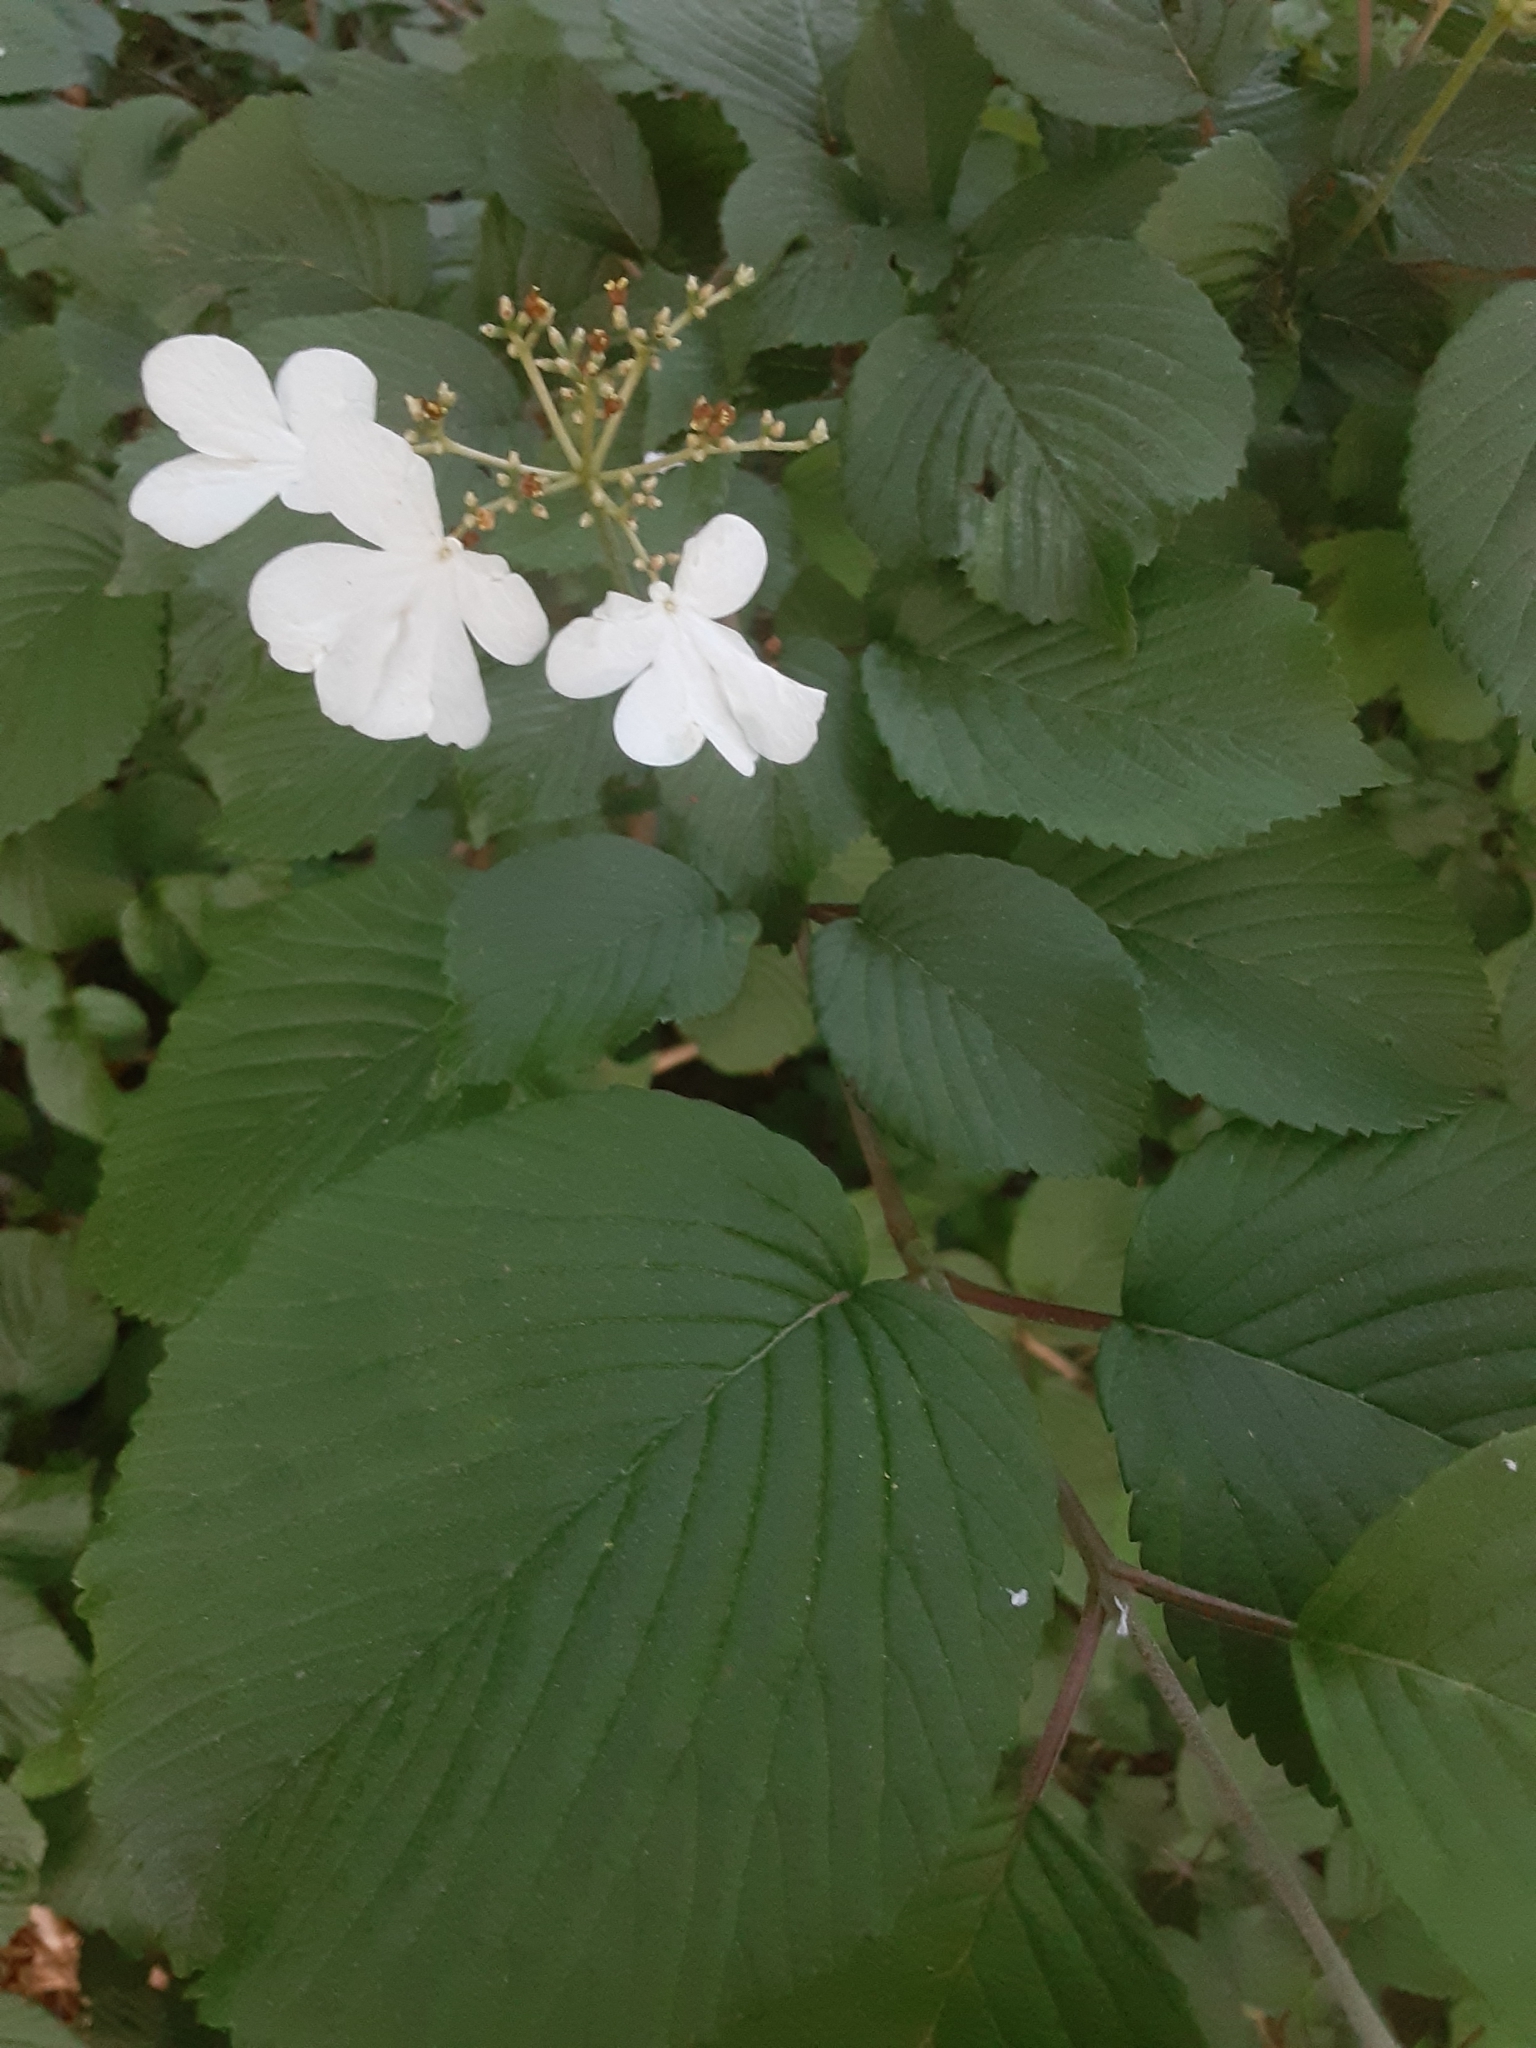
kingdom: Plantae
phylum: Tracheophyta
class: Magnoliopsida
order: Dipsacales
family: Viburnaceae
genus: Viburnum
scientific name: Viburnum lantanoides
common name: Hobblebush
